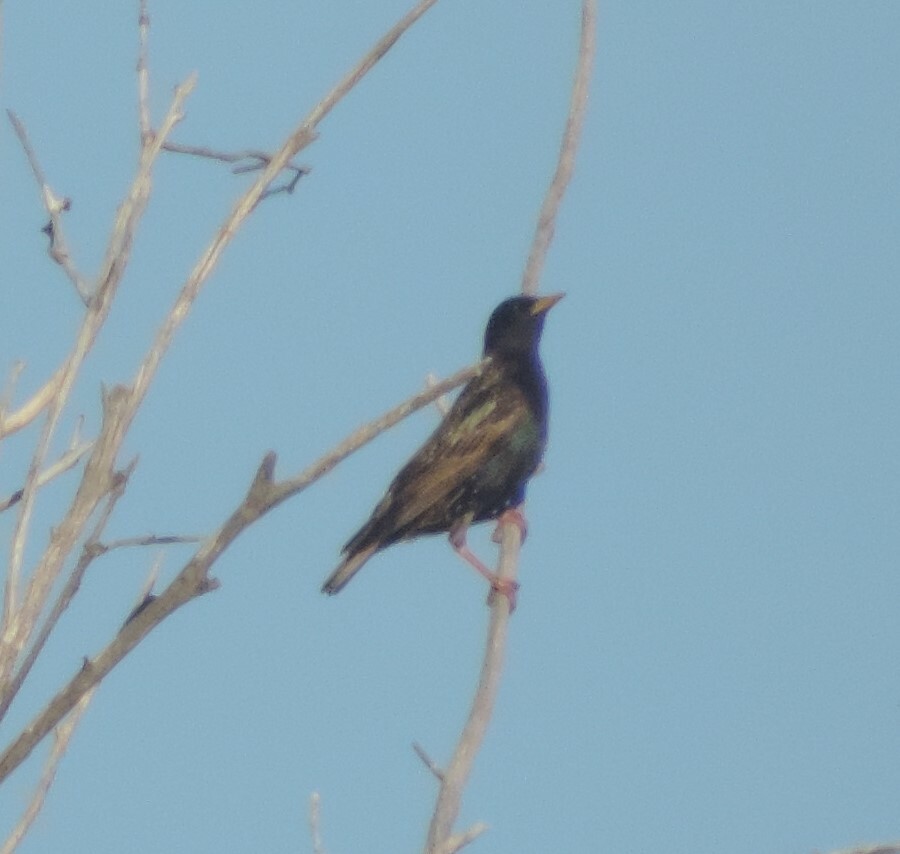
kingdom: Animalia
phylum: Chordata
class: Aves
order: Passeriformes
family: Sturnidae
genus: Sturnus
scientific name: Sturnus vulgaris
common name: Common starling
